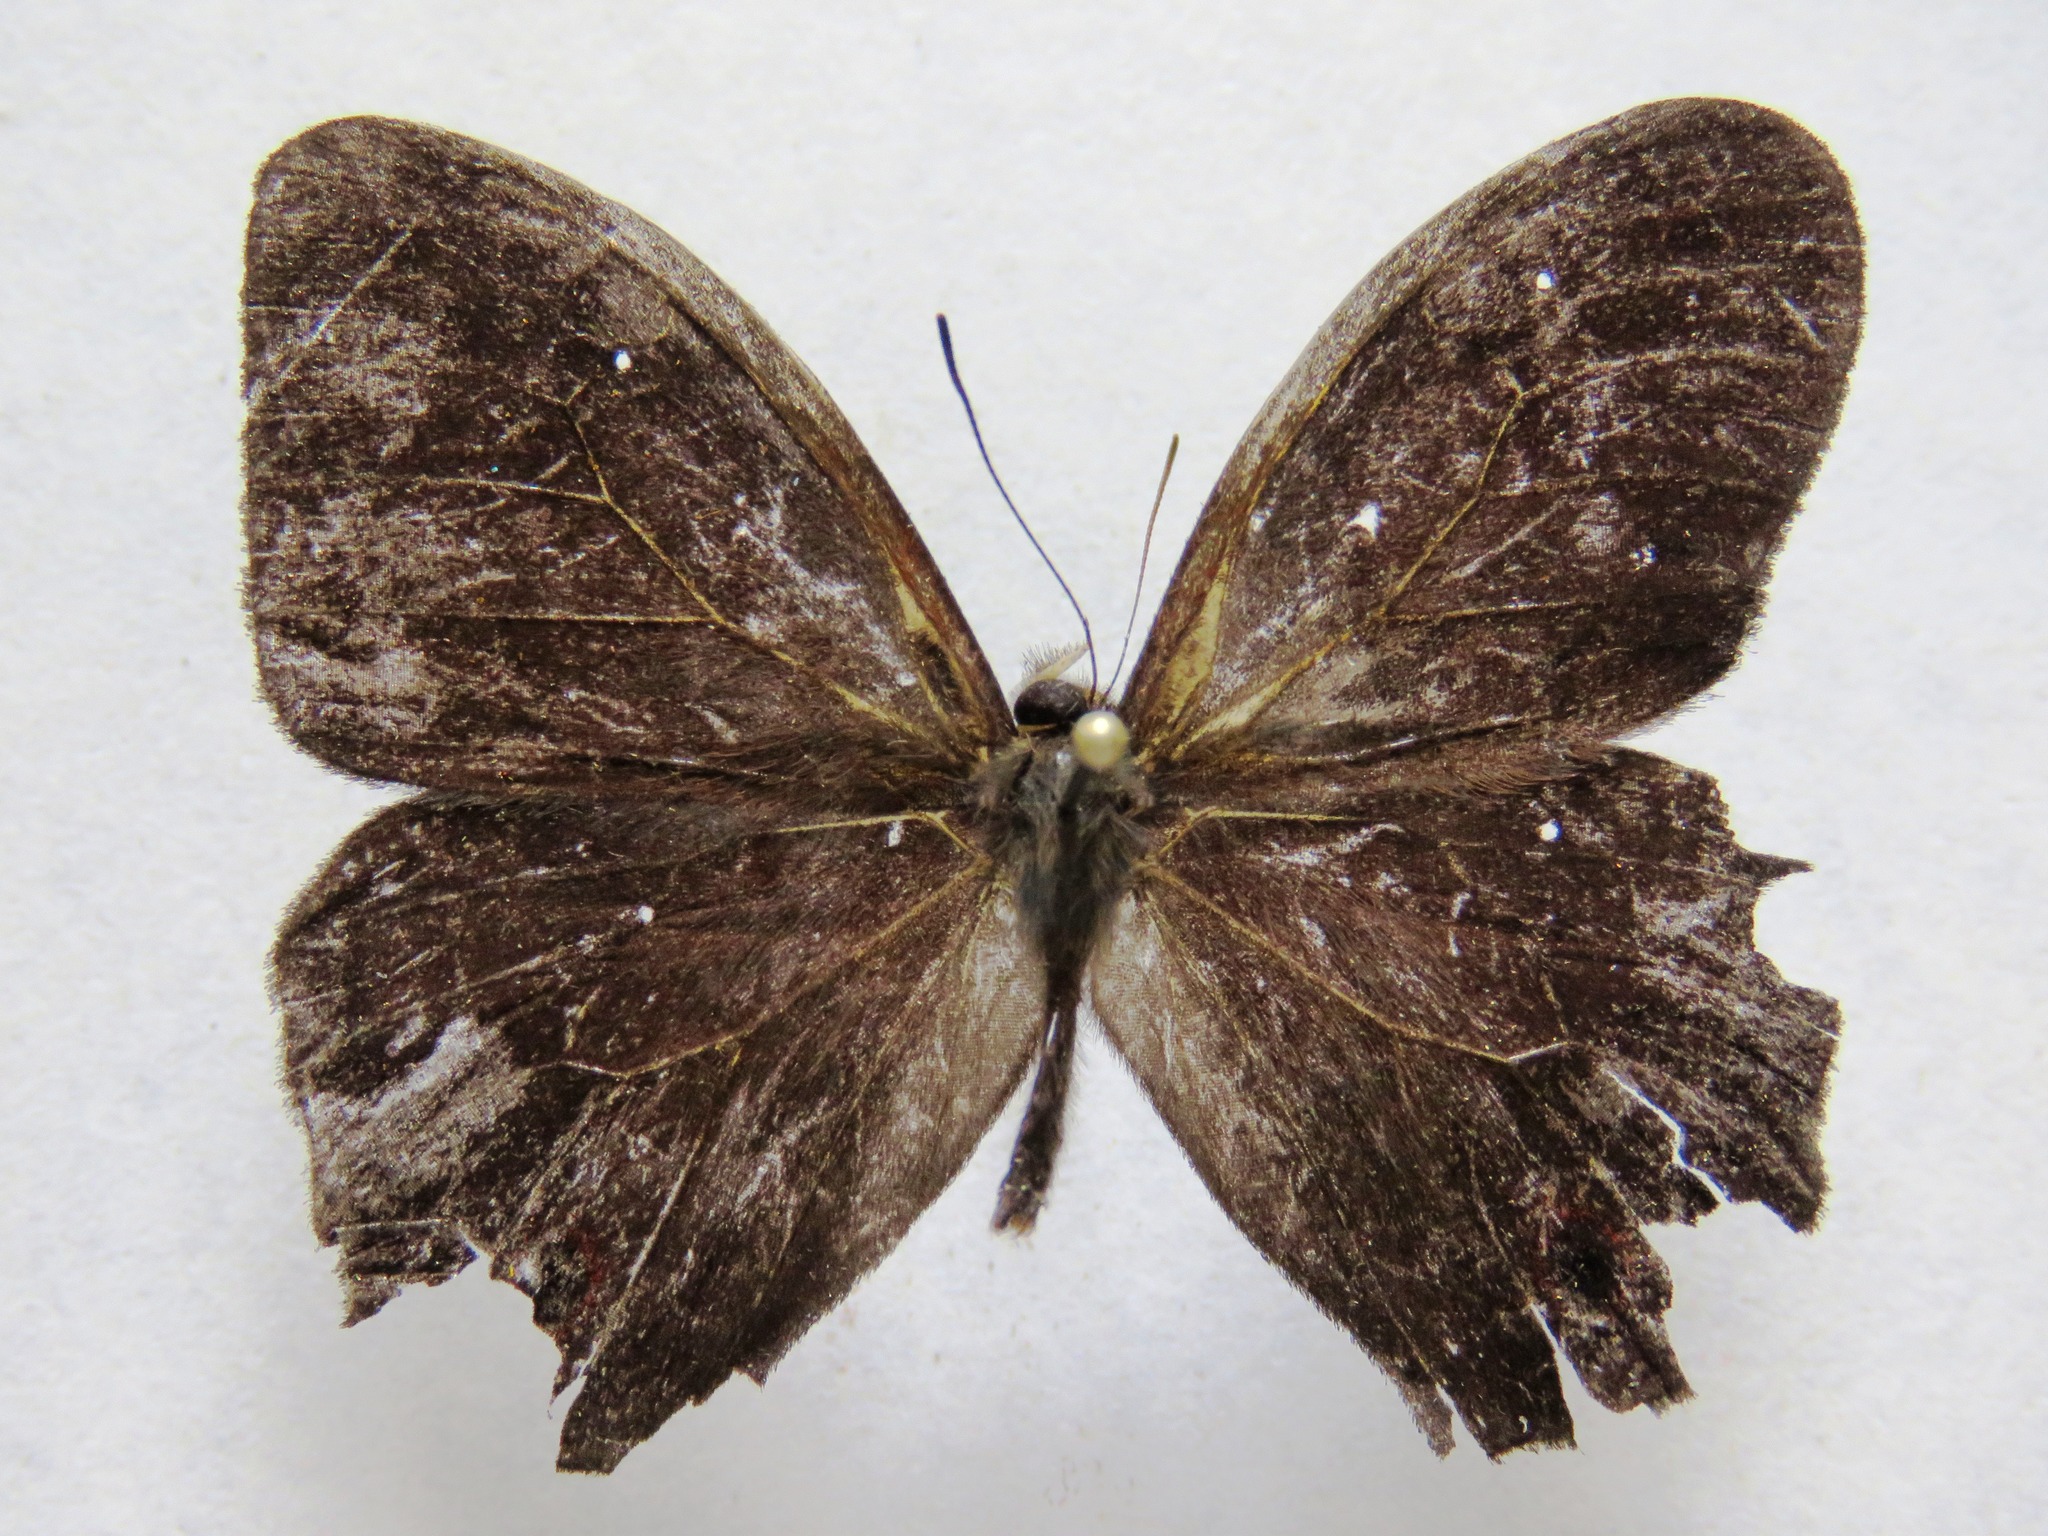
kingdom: Animalia
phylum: Arthropoda
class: Insecta
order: Lepidoptera
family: Nymphalidae
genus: Satyrotaygetis
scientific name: Satyrotaygetis satyrina
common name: Wide-bordered satyr
